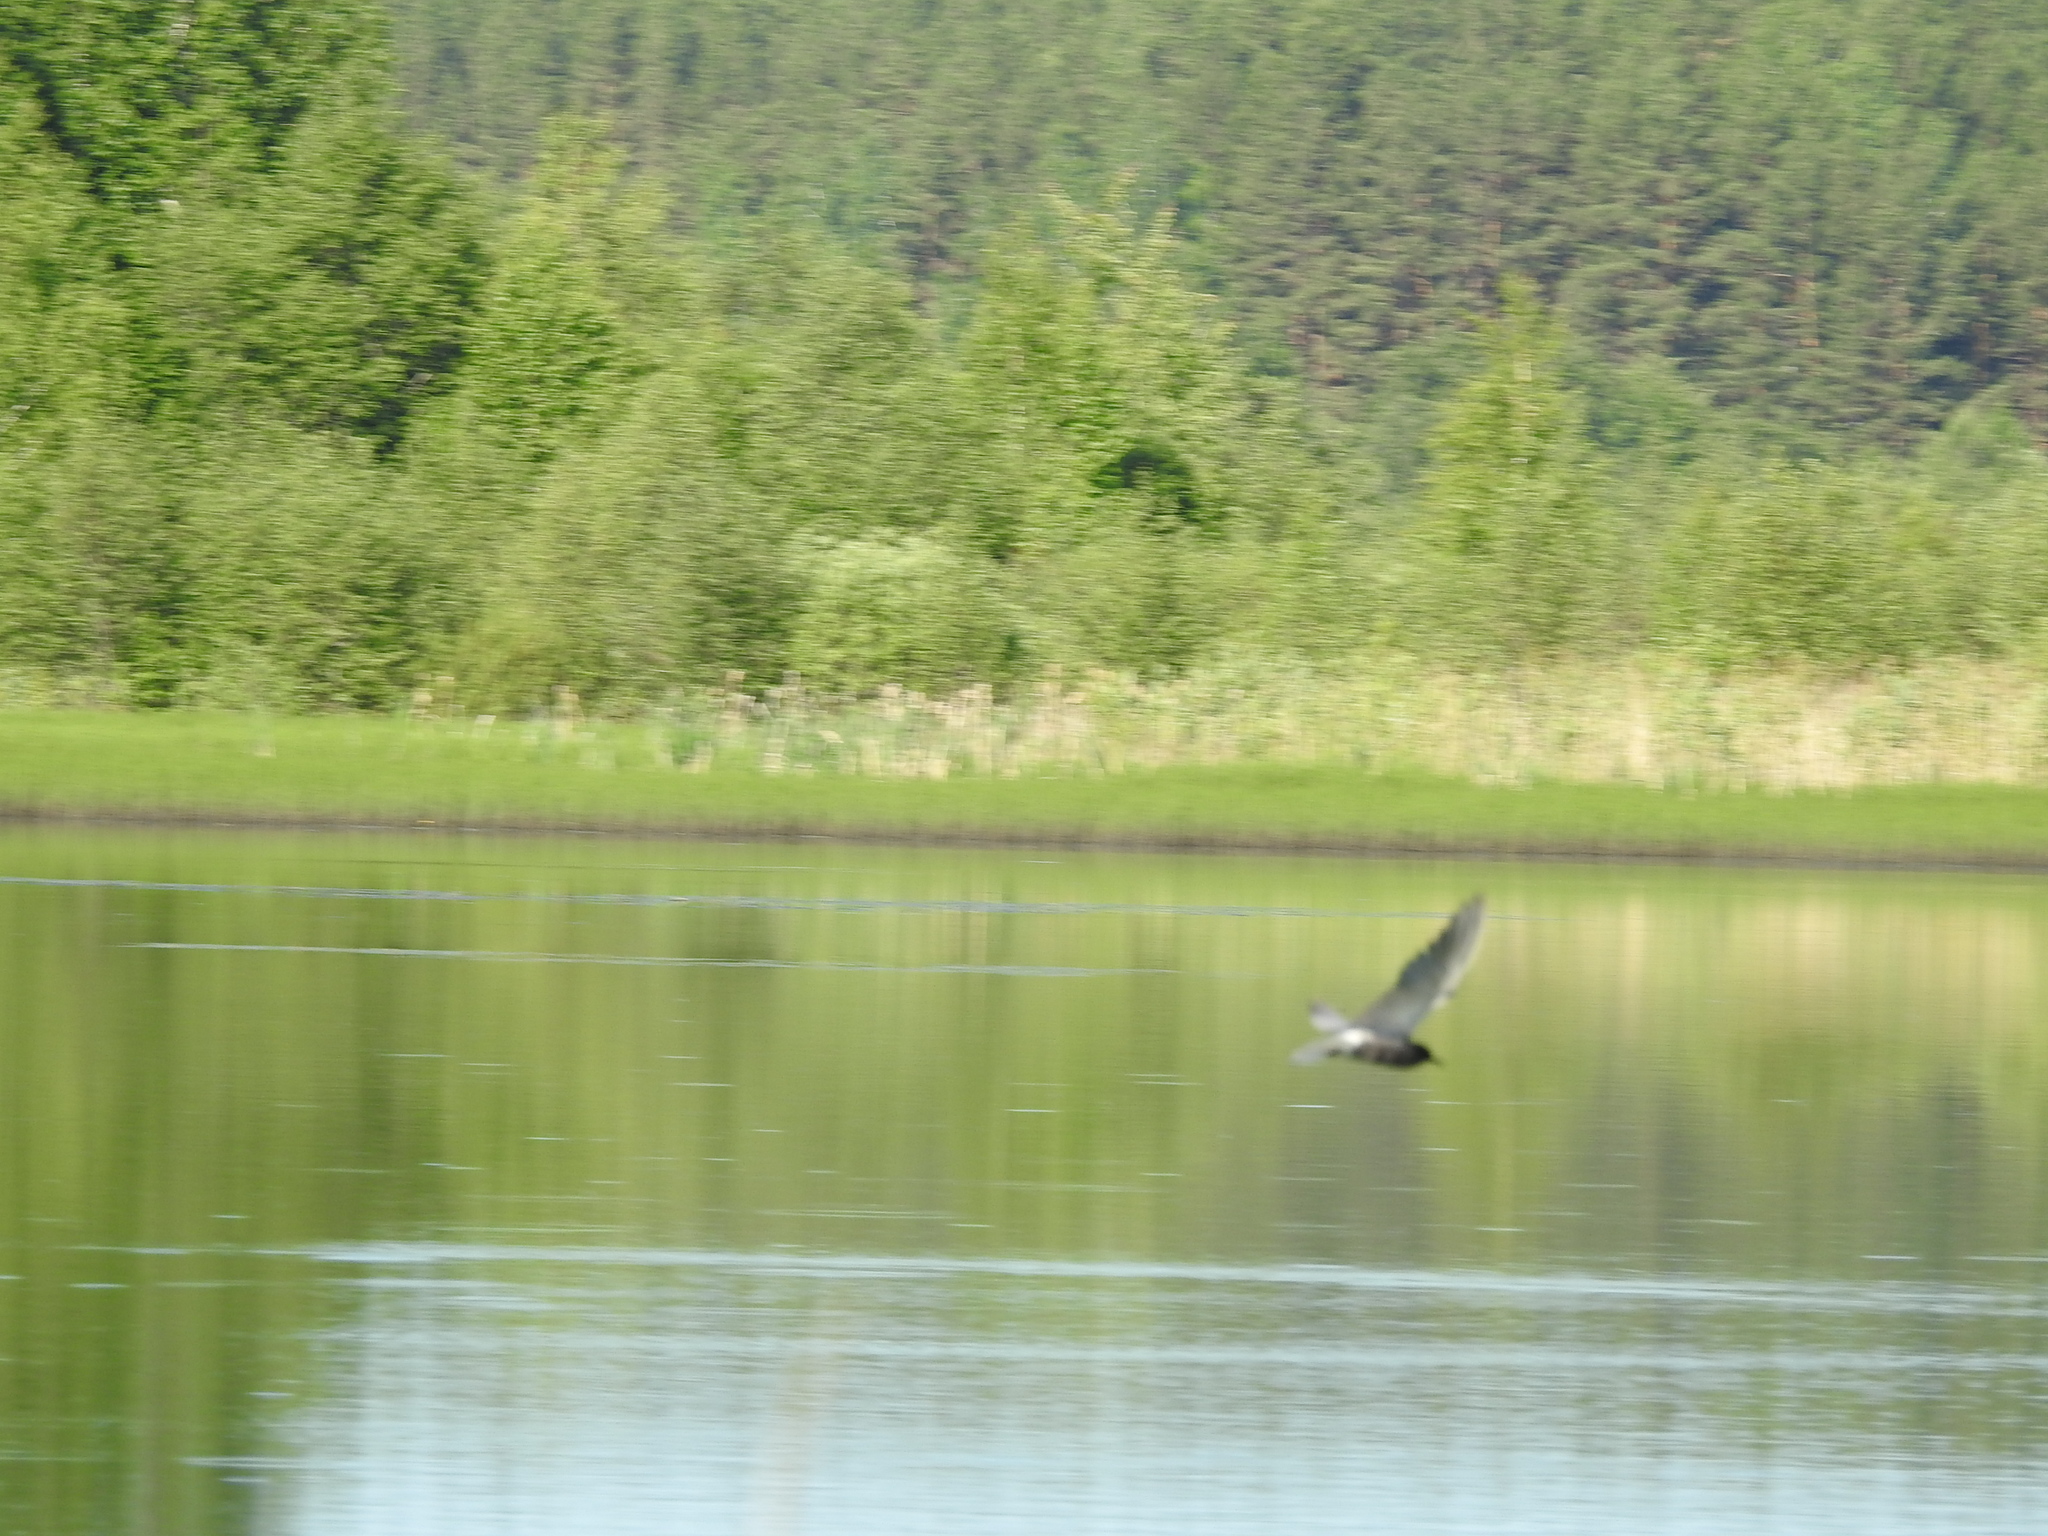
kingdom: Animalia
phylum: Chordata
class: Aves
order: Charadriiformes
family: Laridae
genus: Chlidonias
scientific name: Chlidonias niger
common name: Black tern
